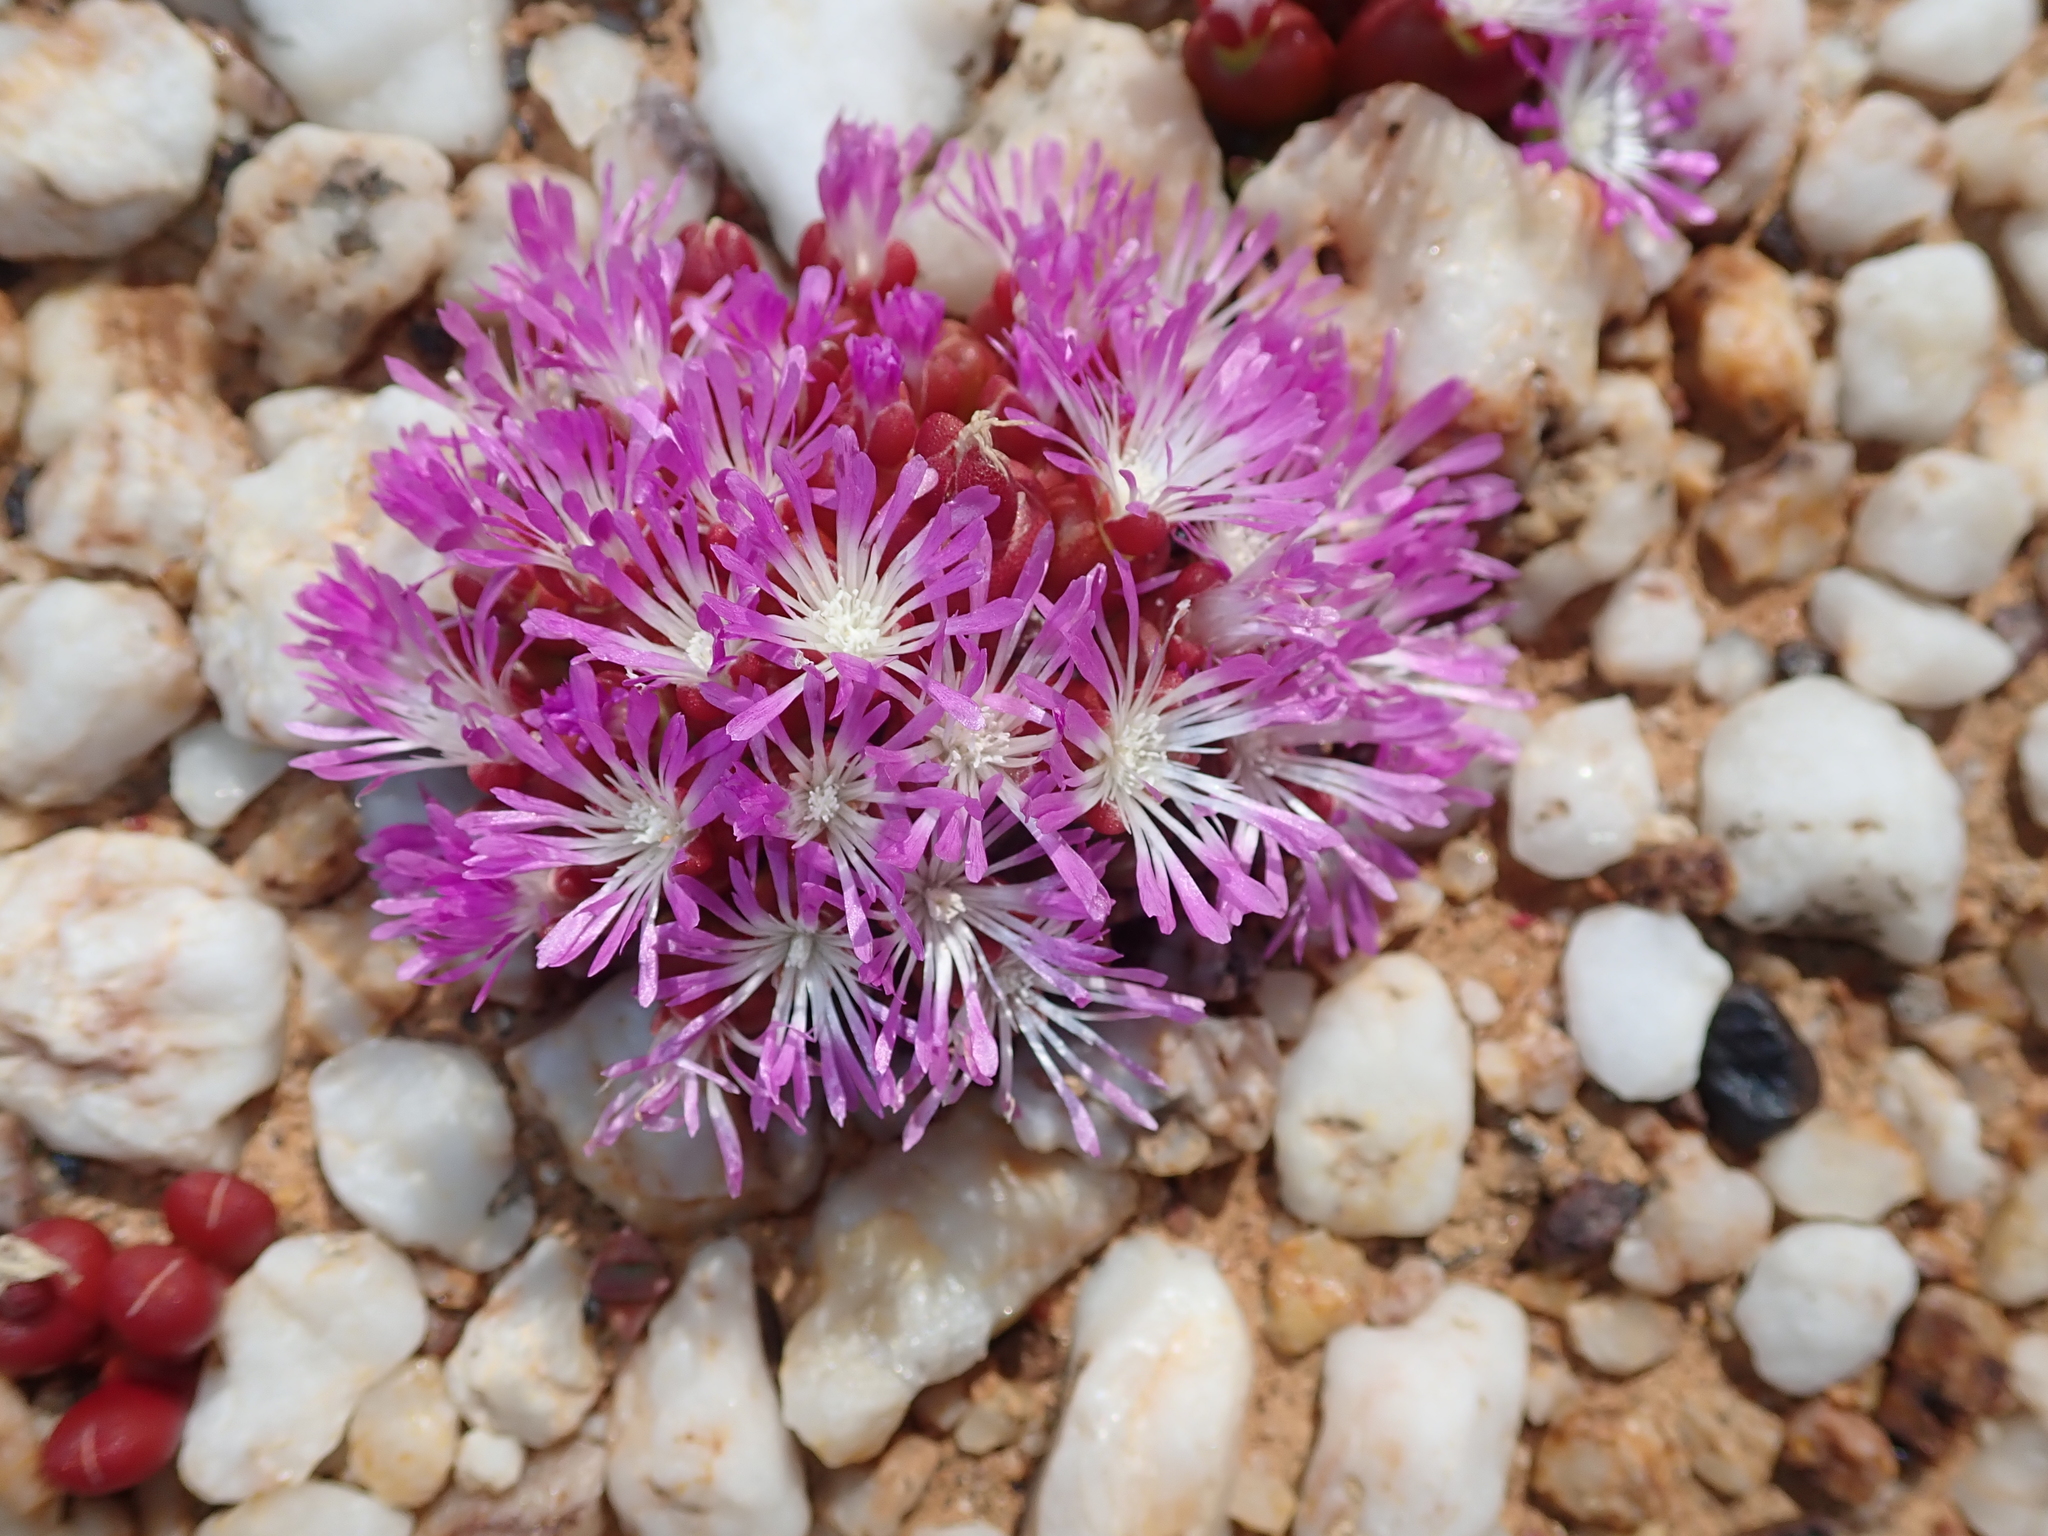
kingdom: Plantae
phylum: Tracheophyta
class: Magnoliopsida
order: Caryophyllales
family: Aizoaceae
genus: Oophytum
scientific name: Oophytum nanum
